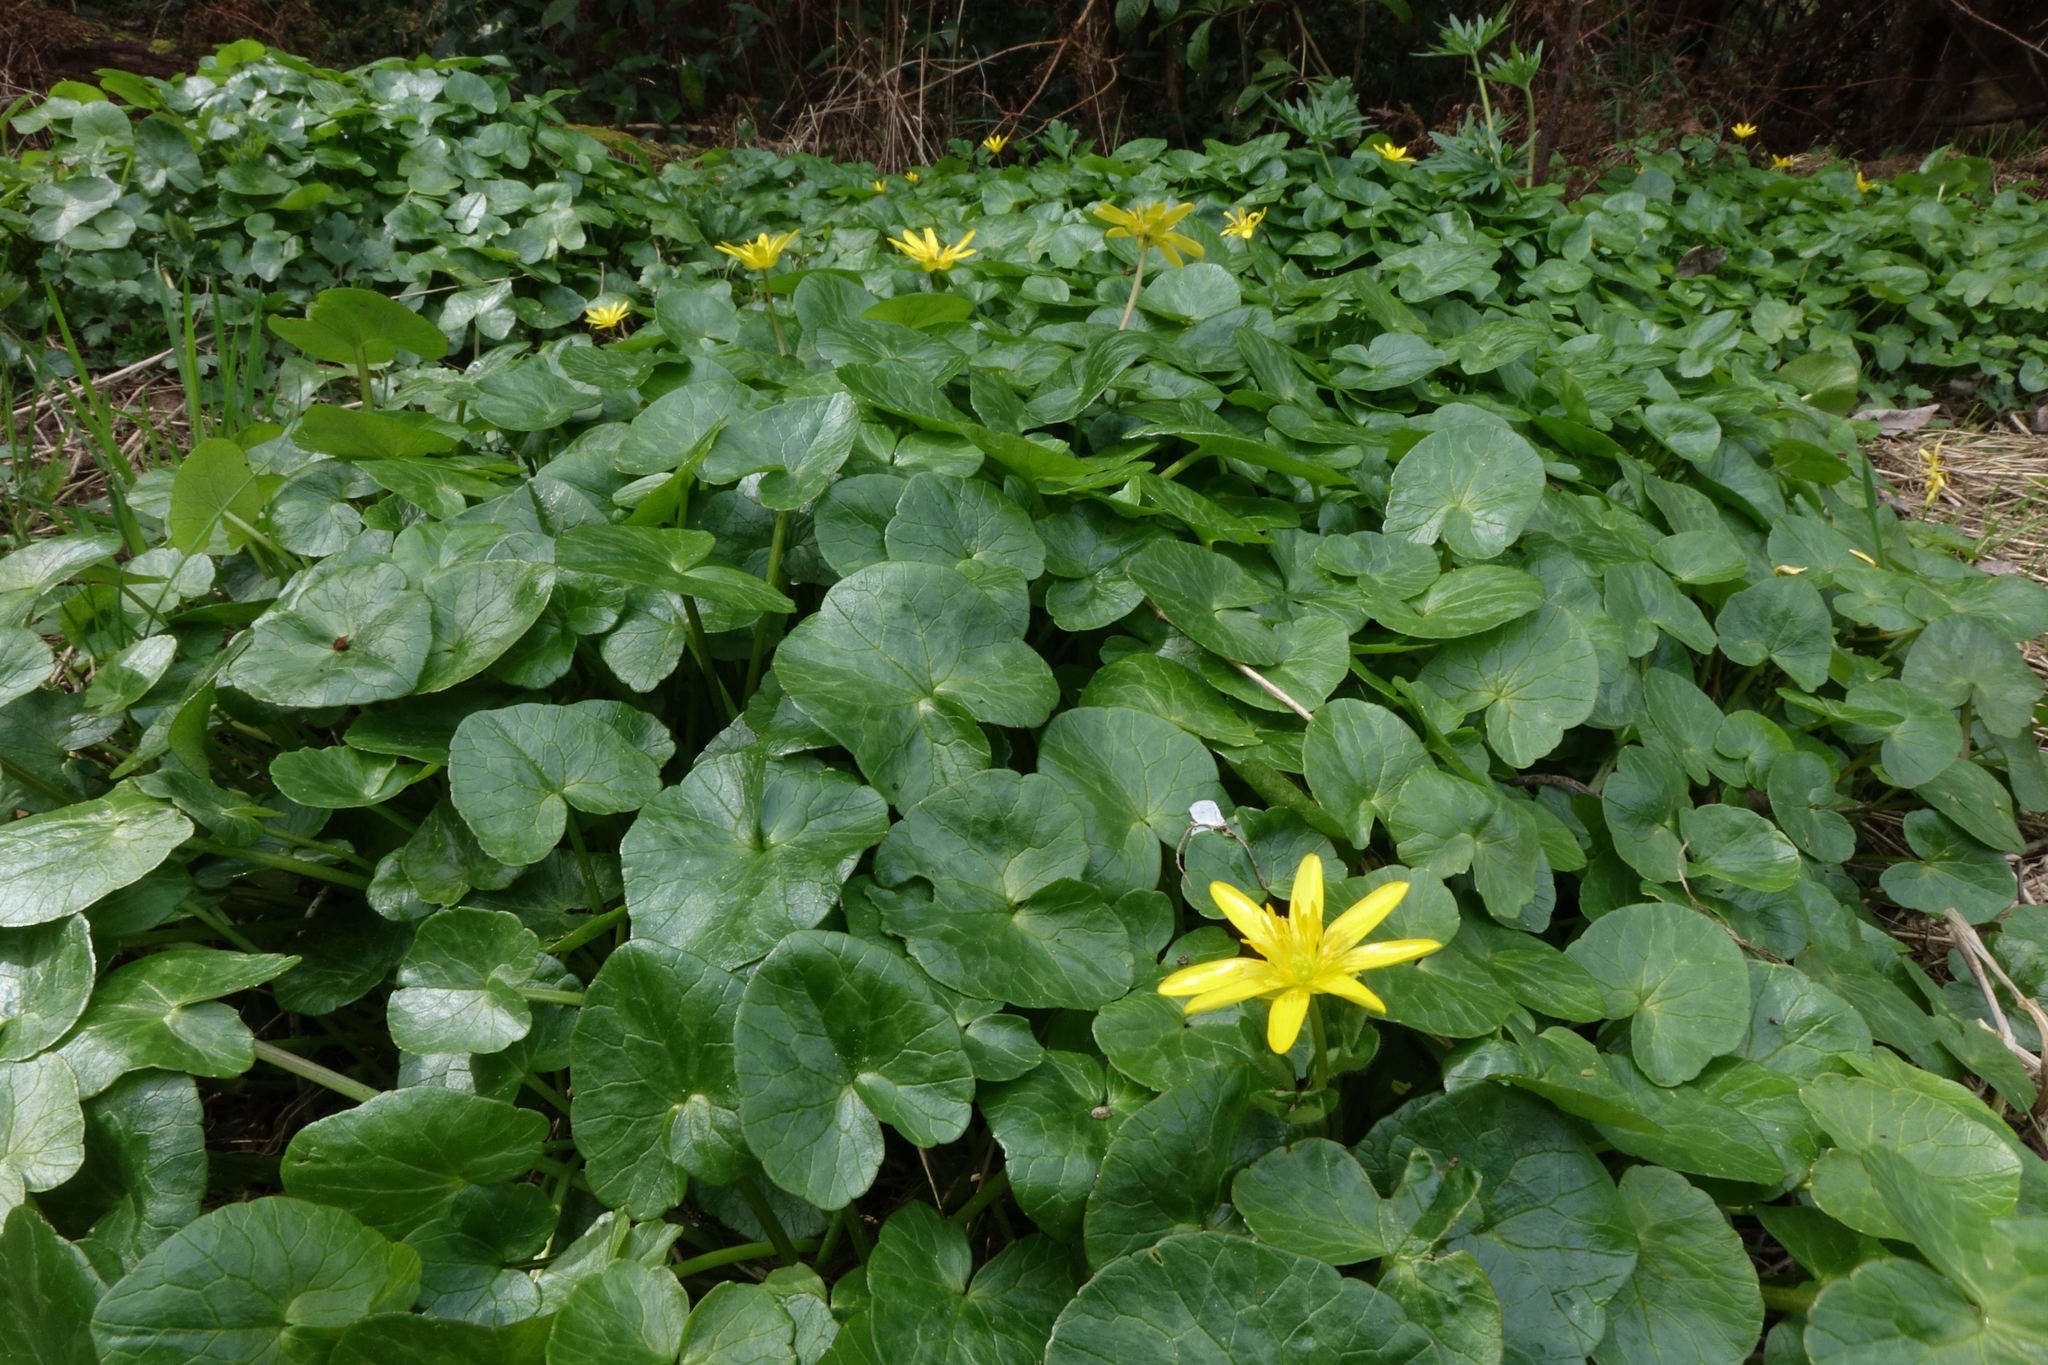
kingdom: Plantae
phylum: Tracheophyta
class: Magnoliopsida
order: Ranunculales
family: Ranunculaceae
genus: Ficaria
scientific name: Ficaria verna
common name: Lesser celandine
